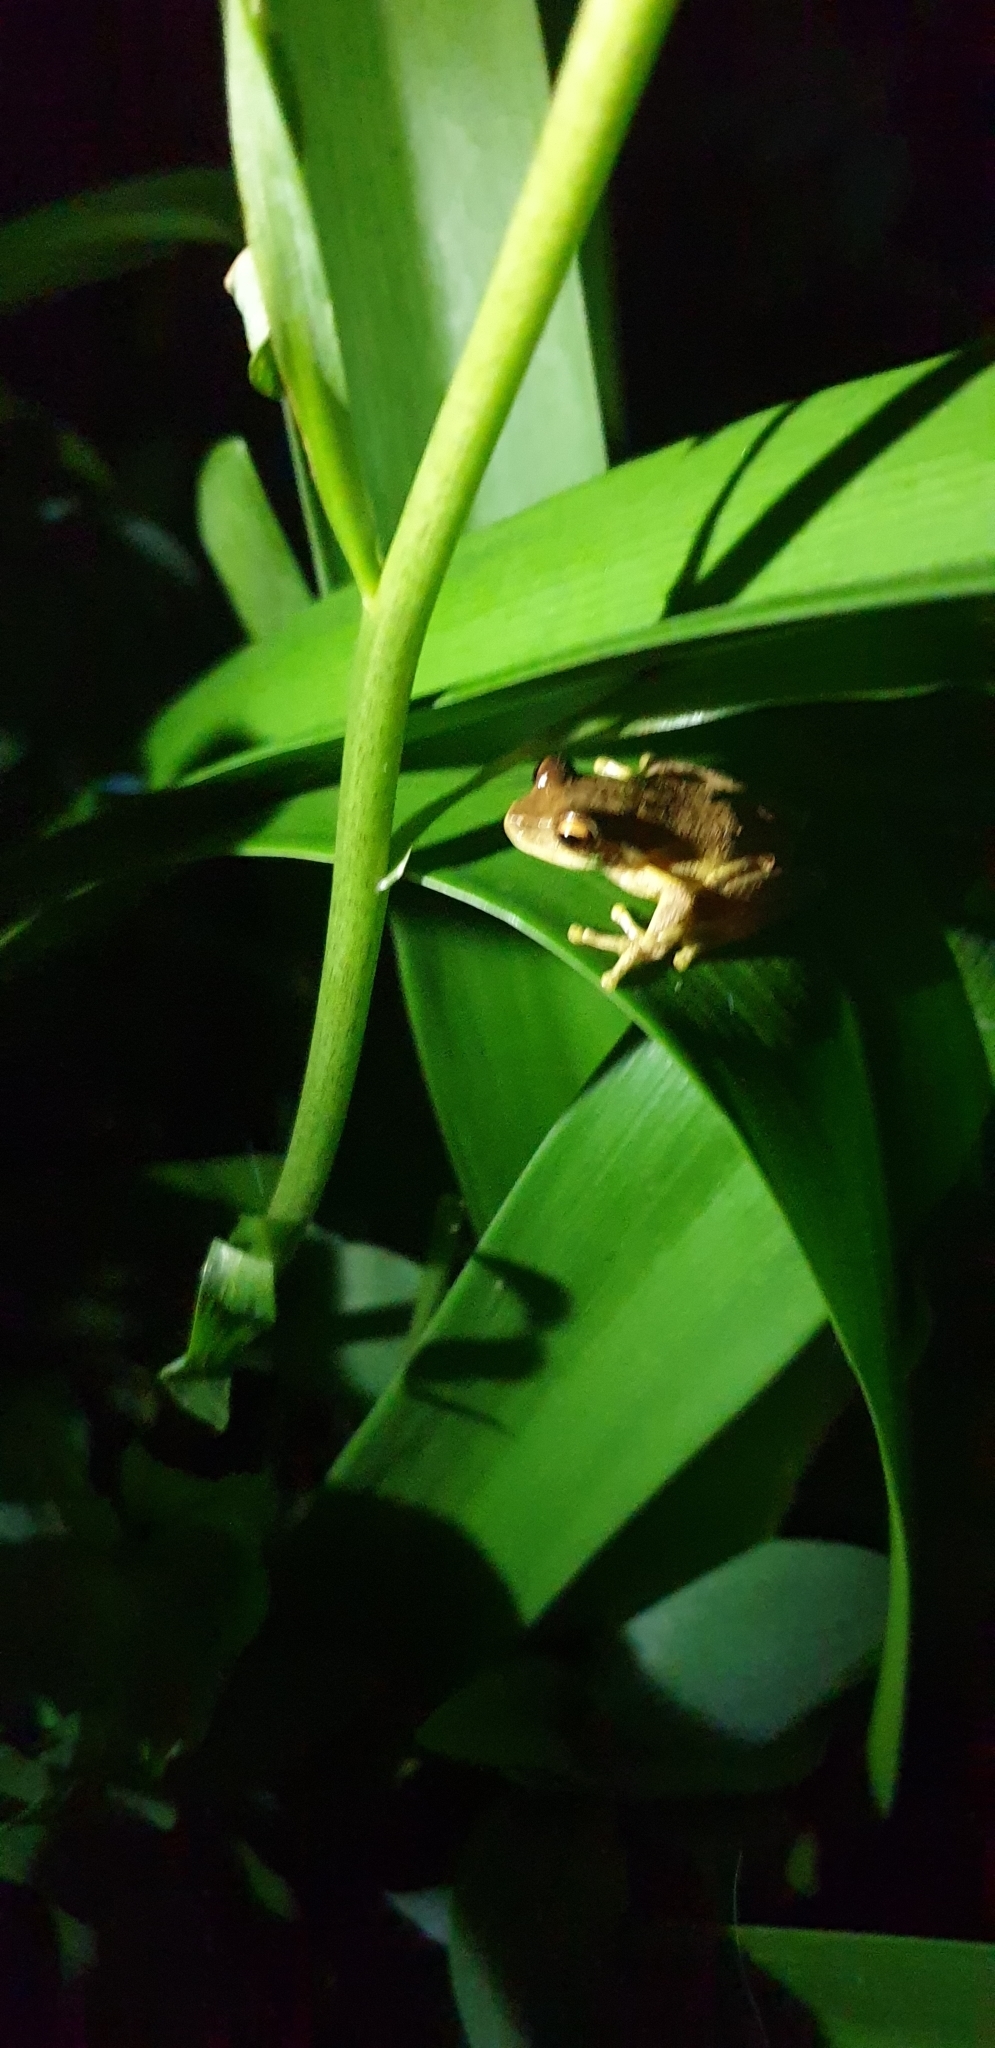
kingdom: Animalia
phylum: Chordata
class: Amphibia
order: Anura
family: Pelodryadidae
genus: Litoria
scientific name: Litoria revelata
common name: Orange-thighed treefrog
